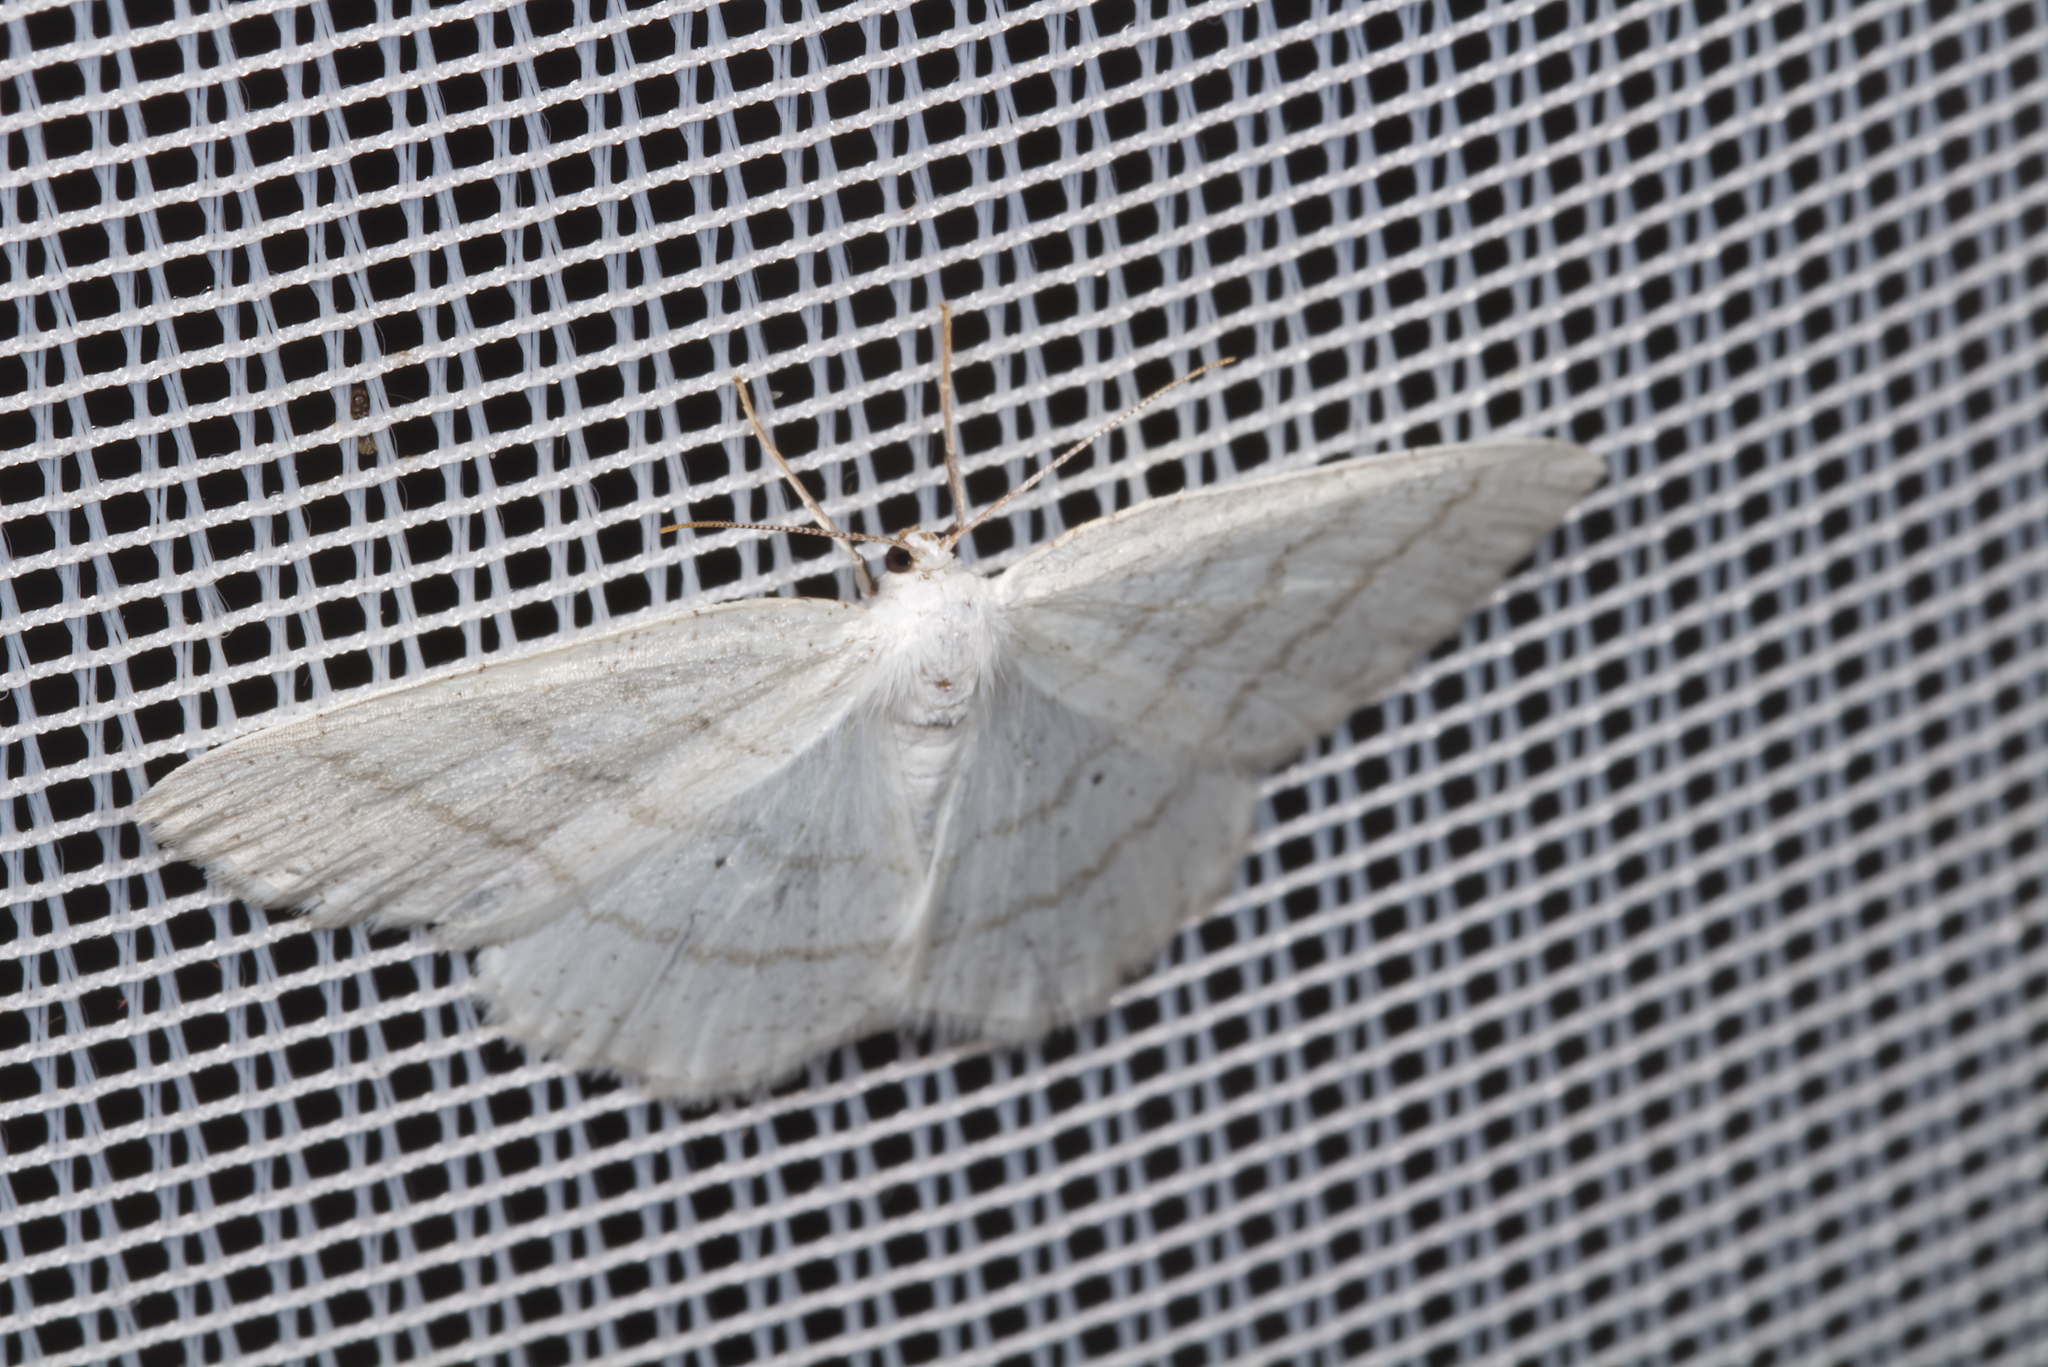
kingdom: Animalia
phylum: Arthropoda
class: Insecta
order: Lepidoptera
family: Geometridae
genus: Cabera
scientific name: Cabera pusaria
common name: Common white wave
